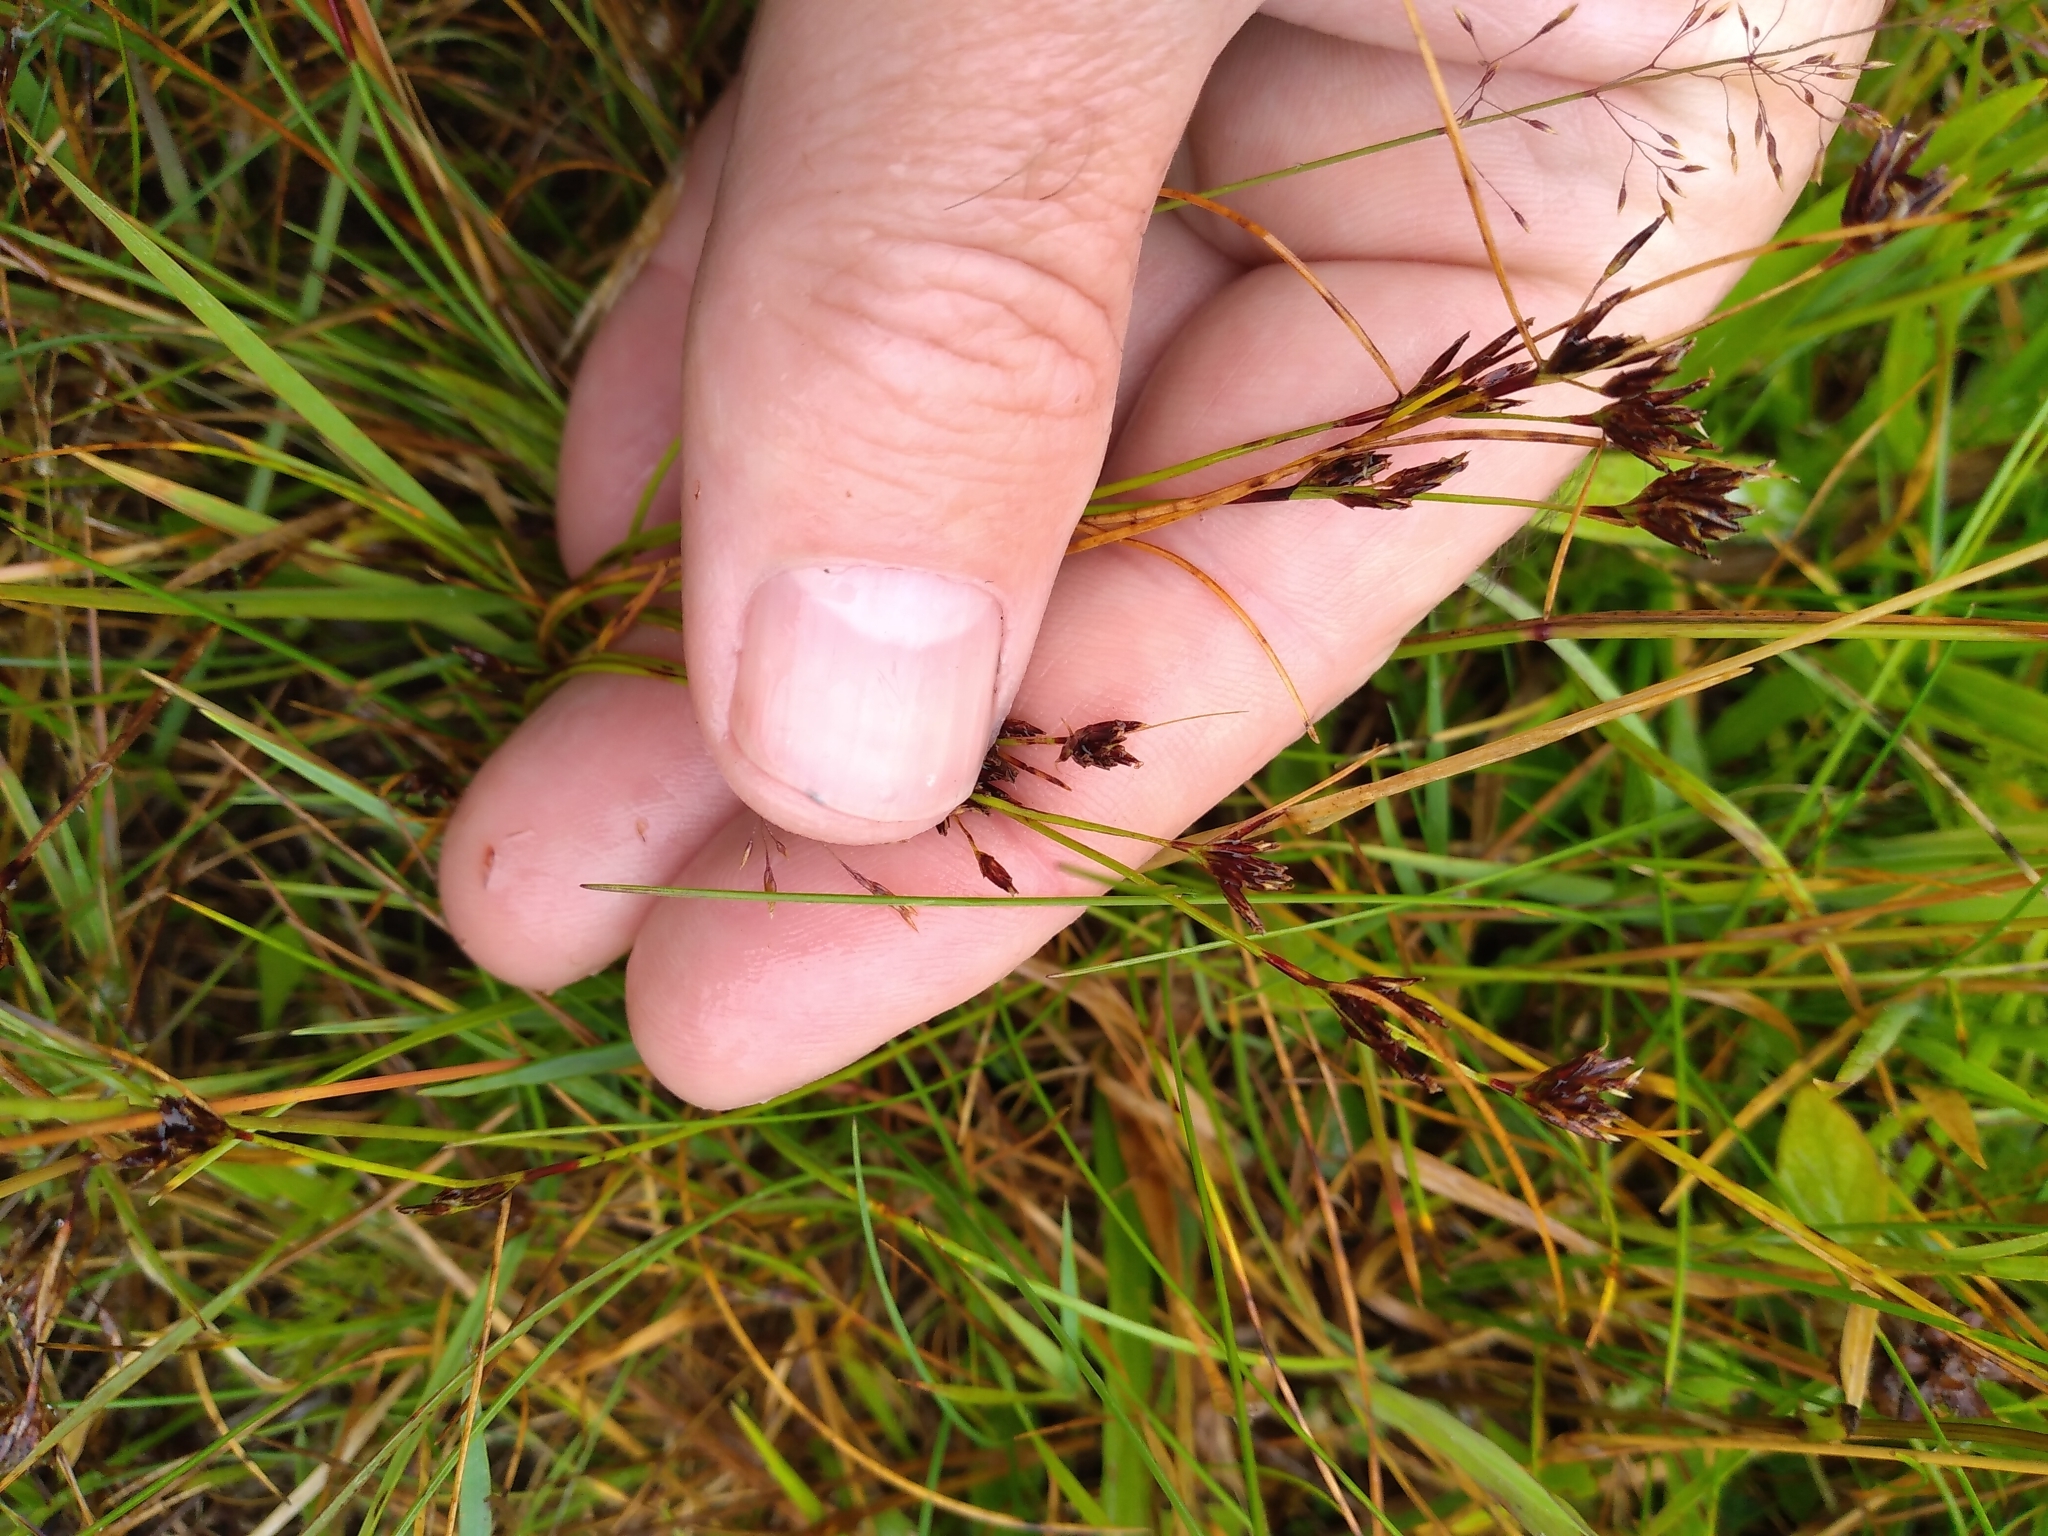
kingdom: Plantae
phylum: Tracheophyta
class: Liliopsida
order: Poales
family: Cyperaceae
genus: Schoenus
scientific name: Schoenus apogon
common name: Smooth bogrush
